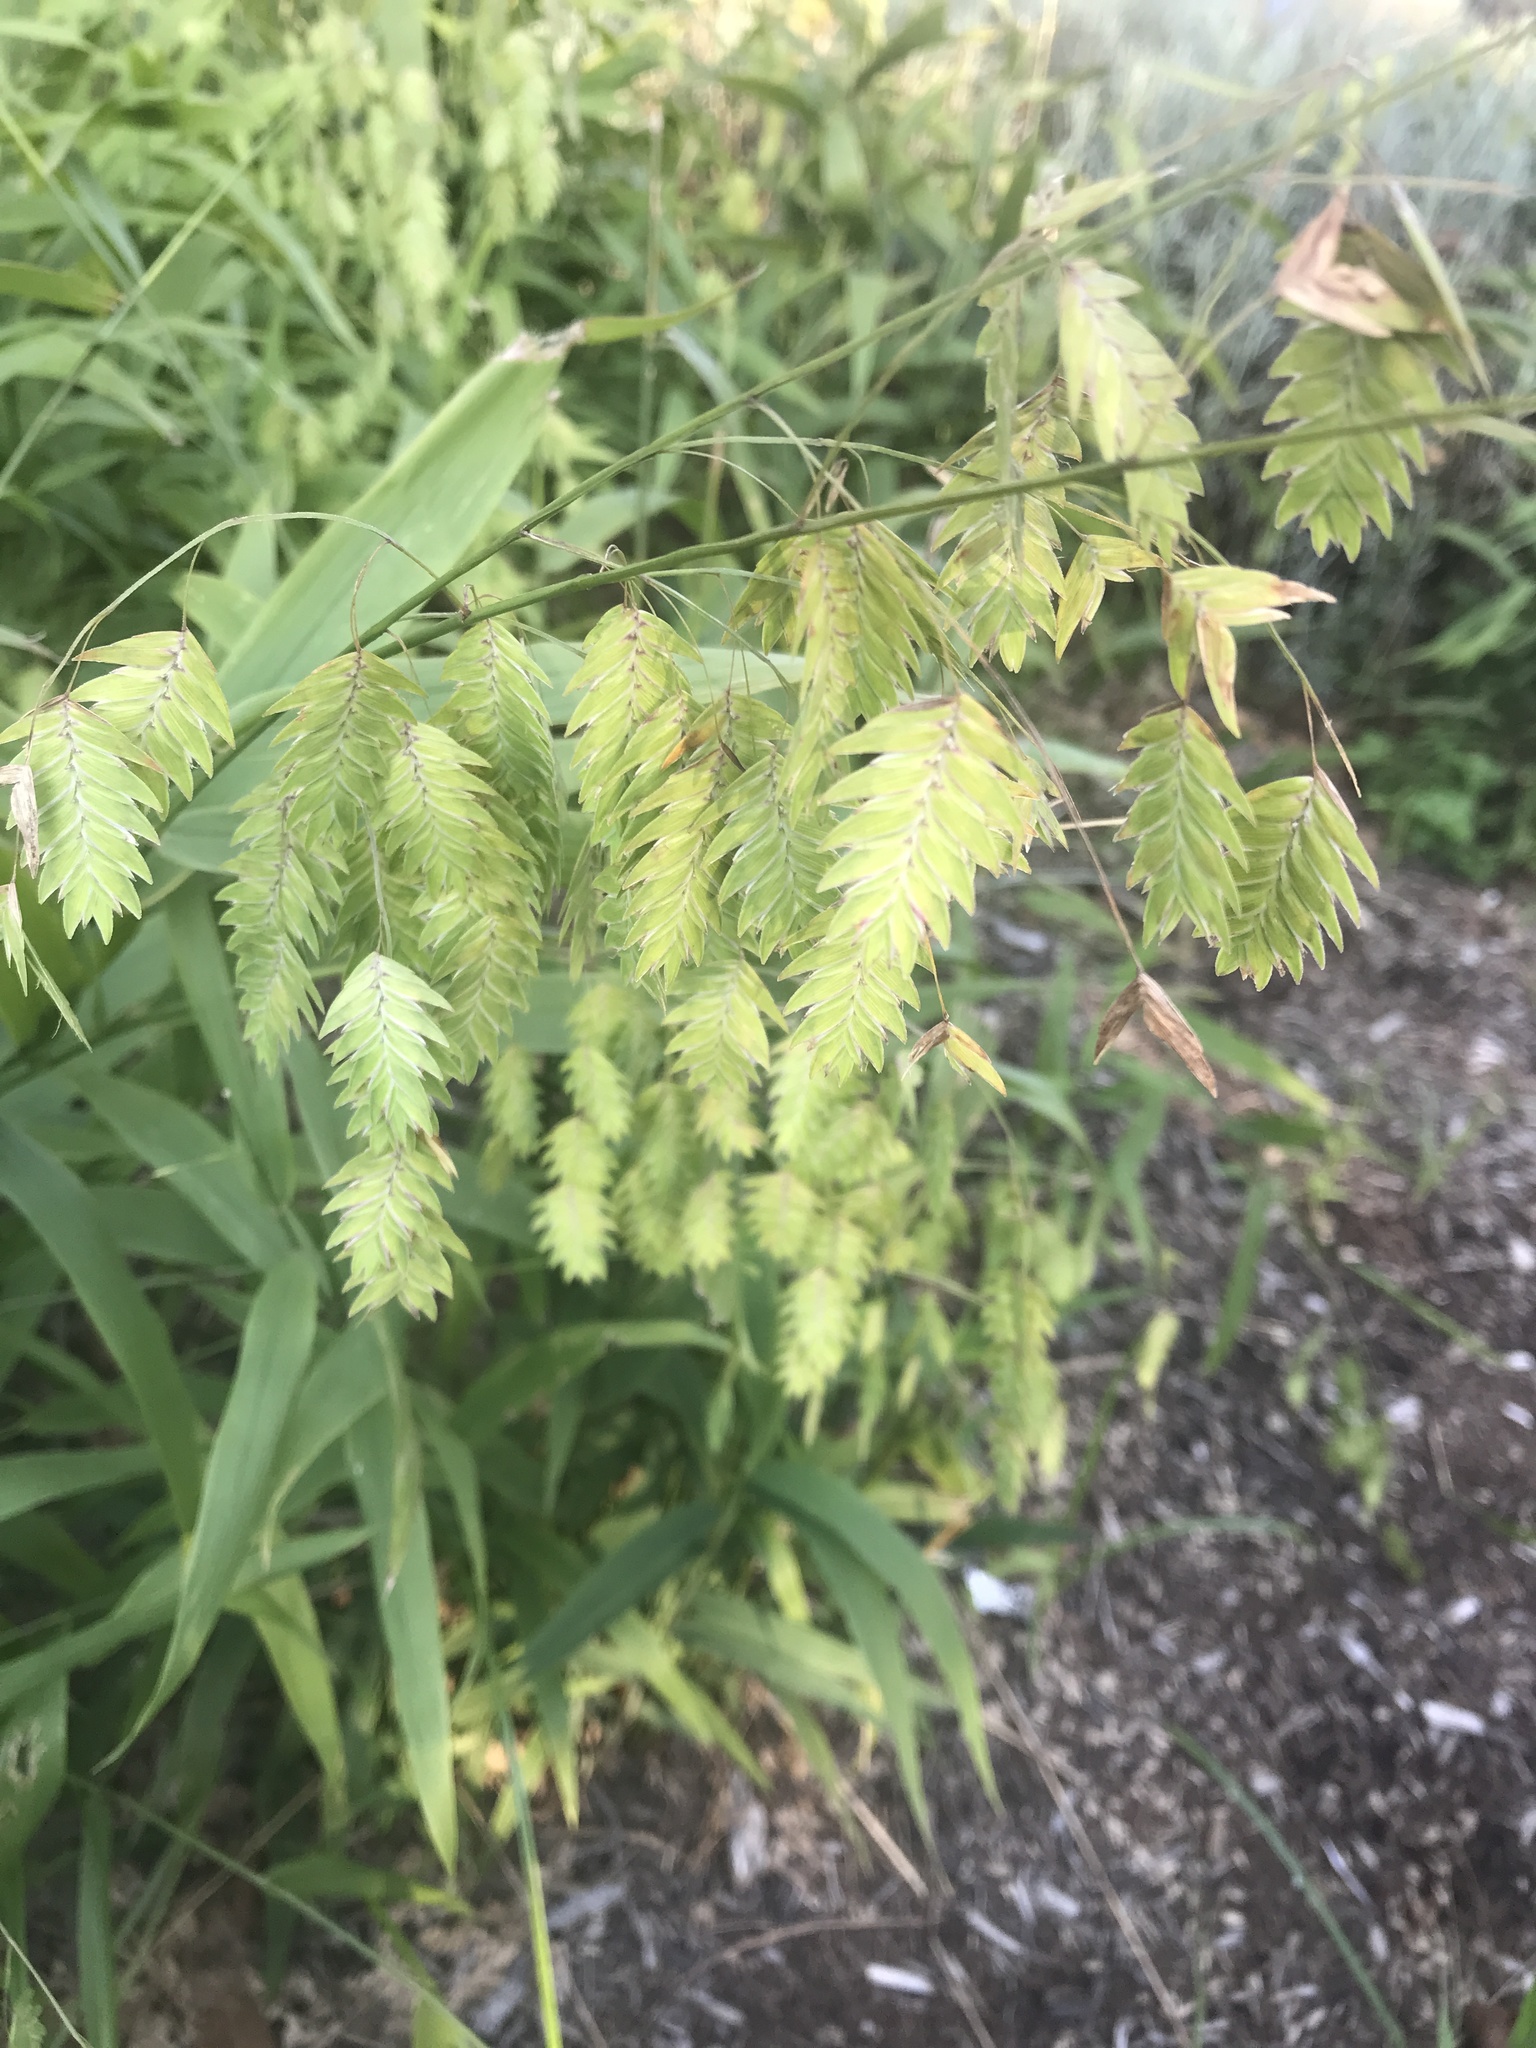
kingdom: Plantae
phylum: Tracheophyta
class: Liliopsida
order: Poales
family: Poaceae
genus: Chasmanthium
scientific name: Chasmanthium latifolium
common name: Broad-leaved chasmanthium
